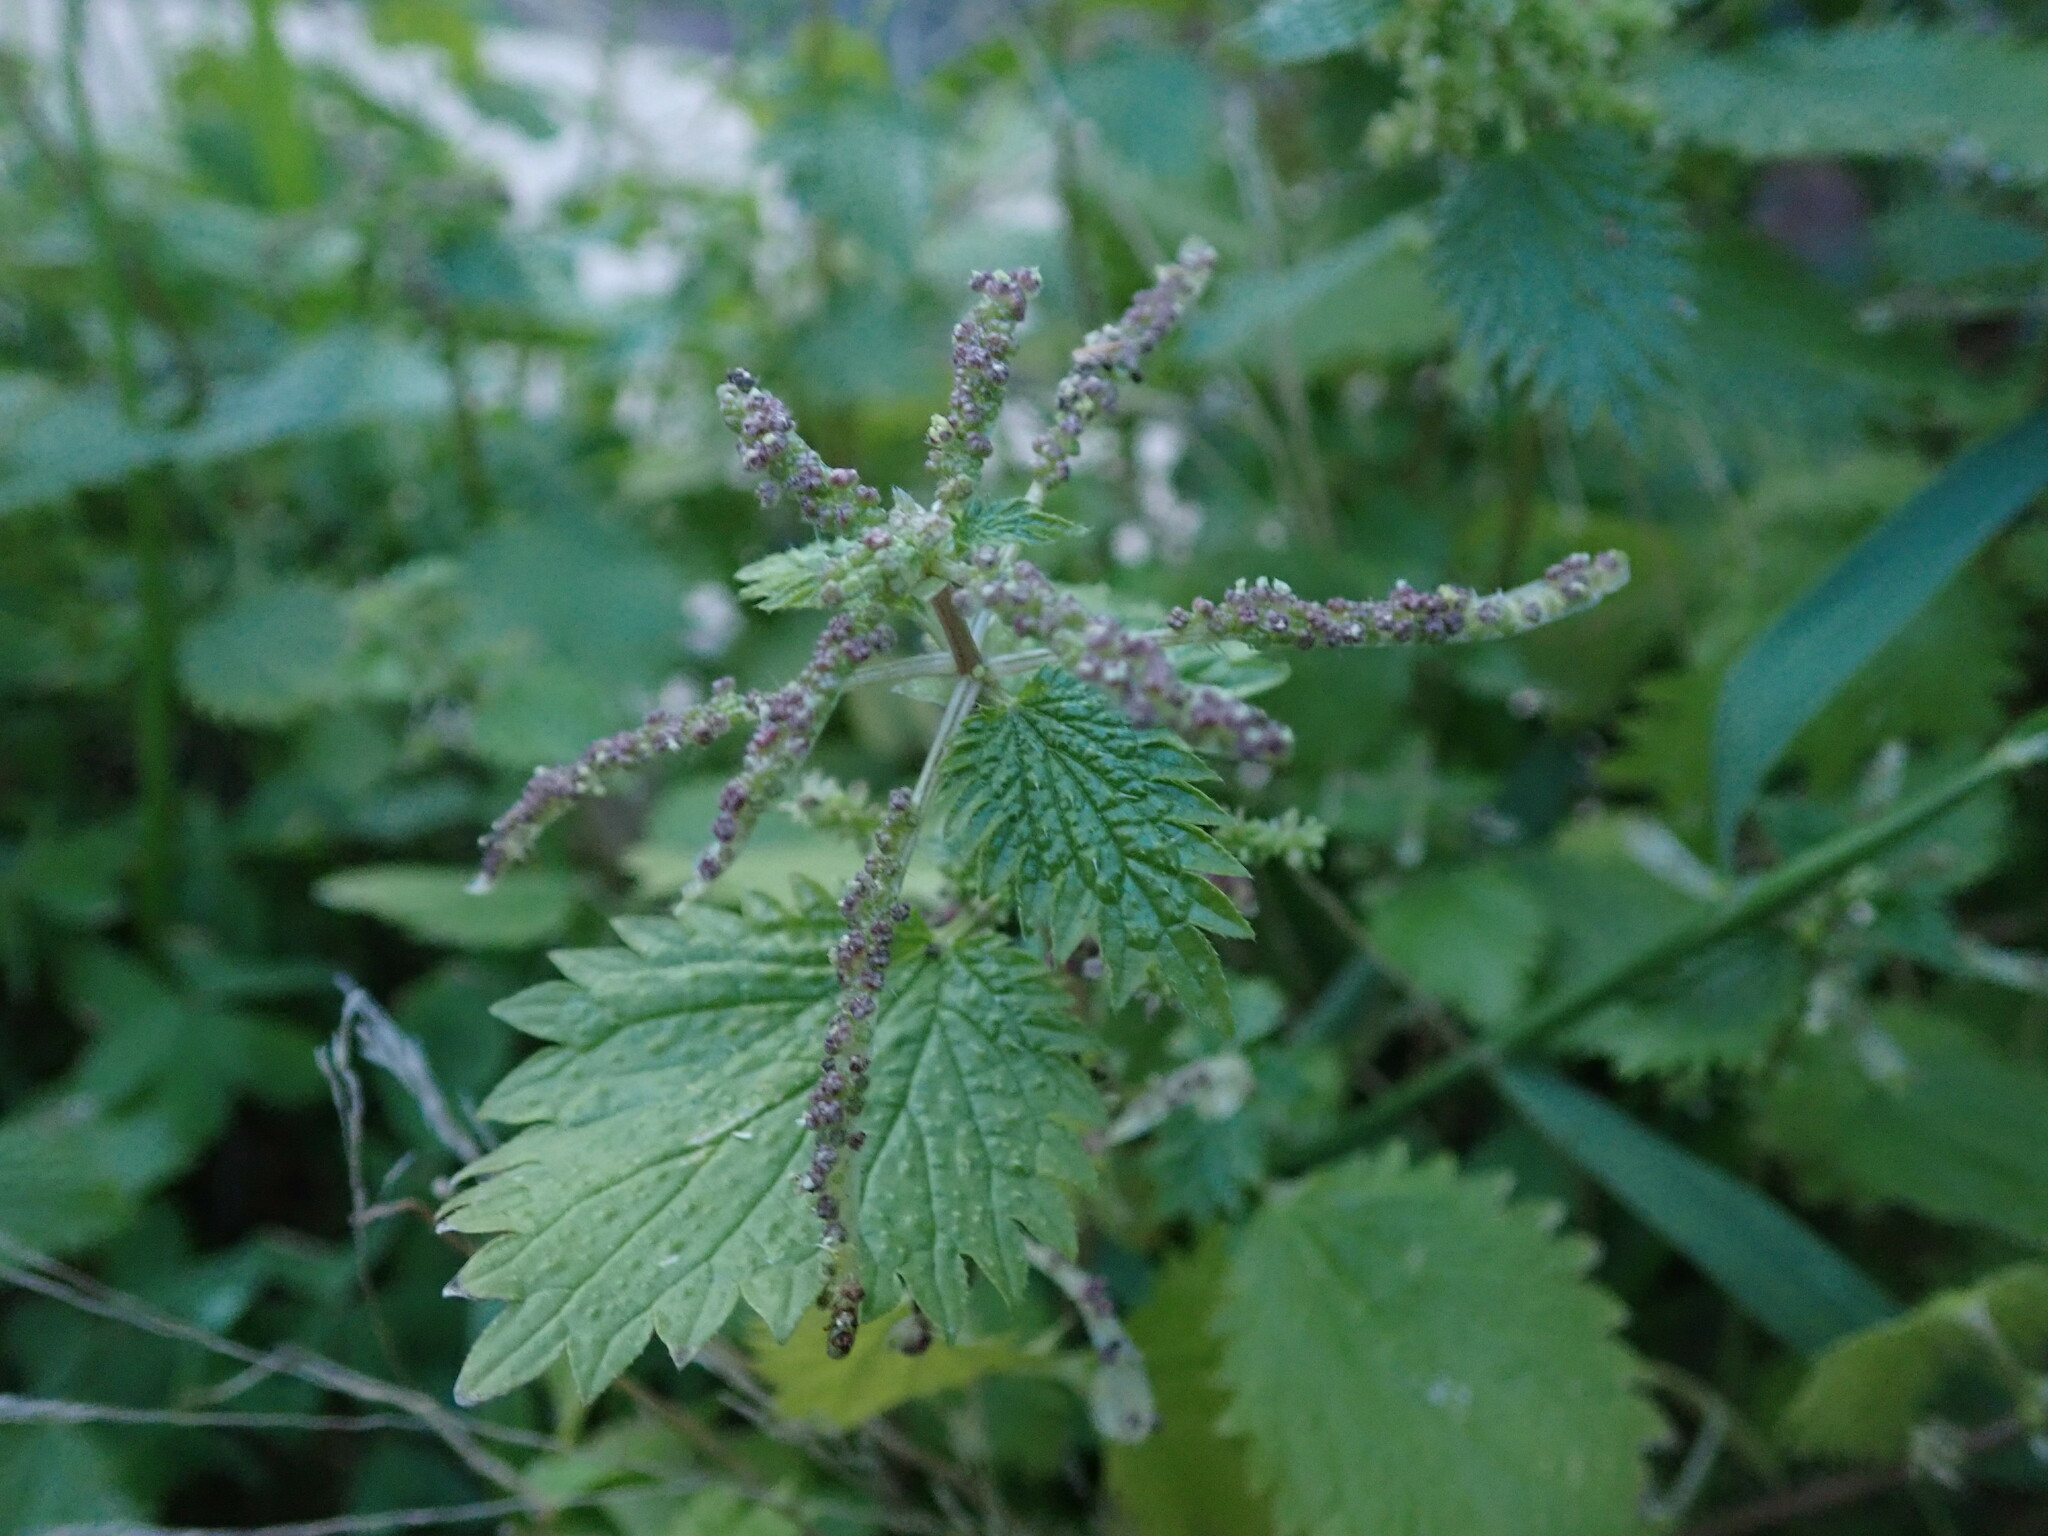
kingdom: Plantae
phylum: Tracheophyta
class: Magnoliopsida
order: Rosales
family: Urticaceae
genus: Urtica
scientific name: Urtica membranacea
